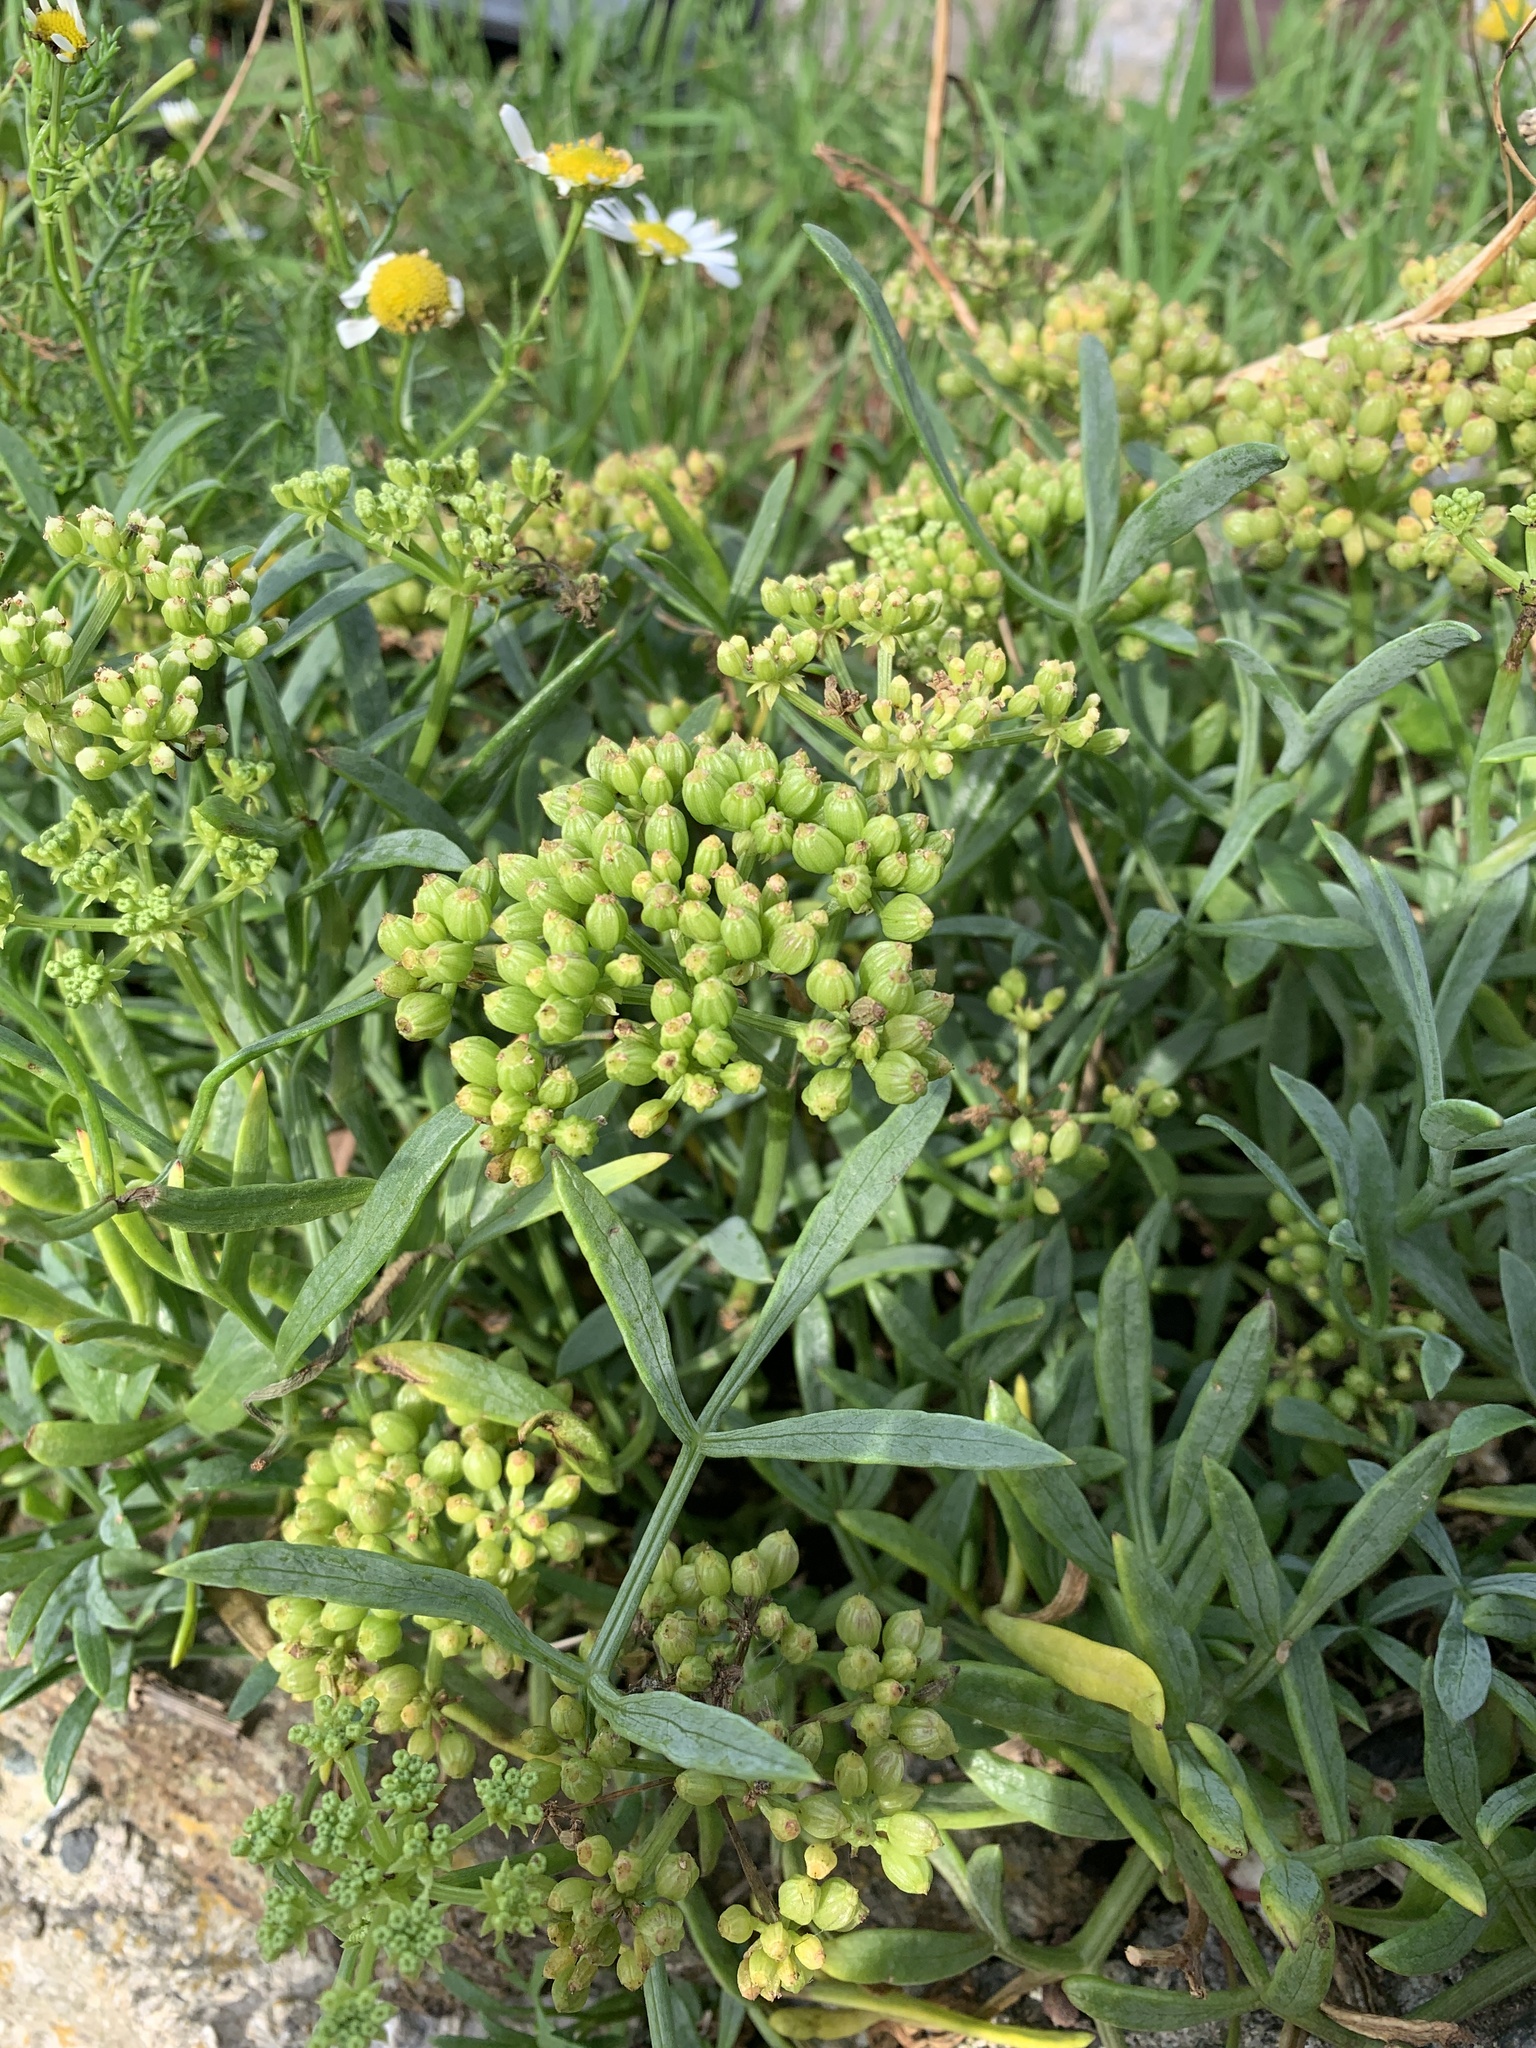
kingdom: Plantae
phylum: Tracheophyta
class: Magnoliopsida
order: Apiales
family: Apiaceae
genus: Crithmum
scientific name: Crithmum maritimum
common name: Rock samphire
